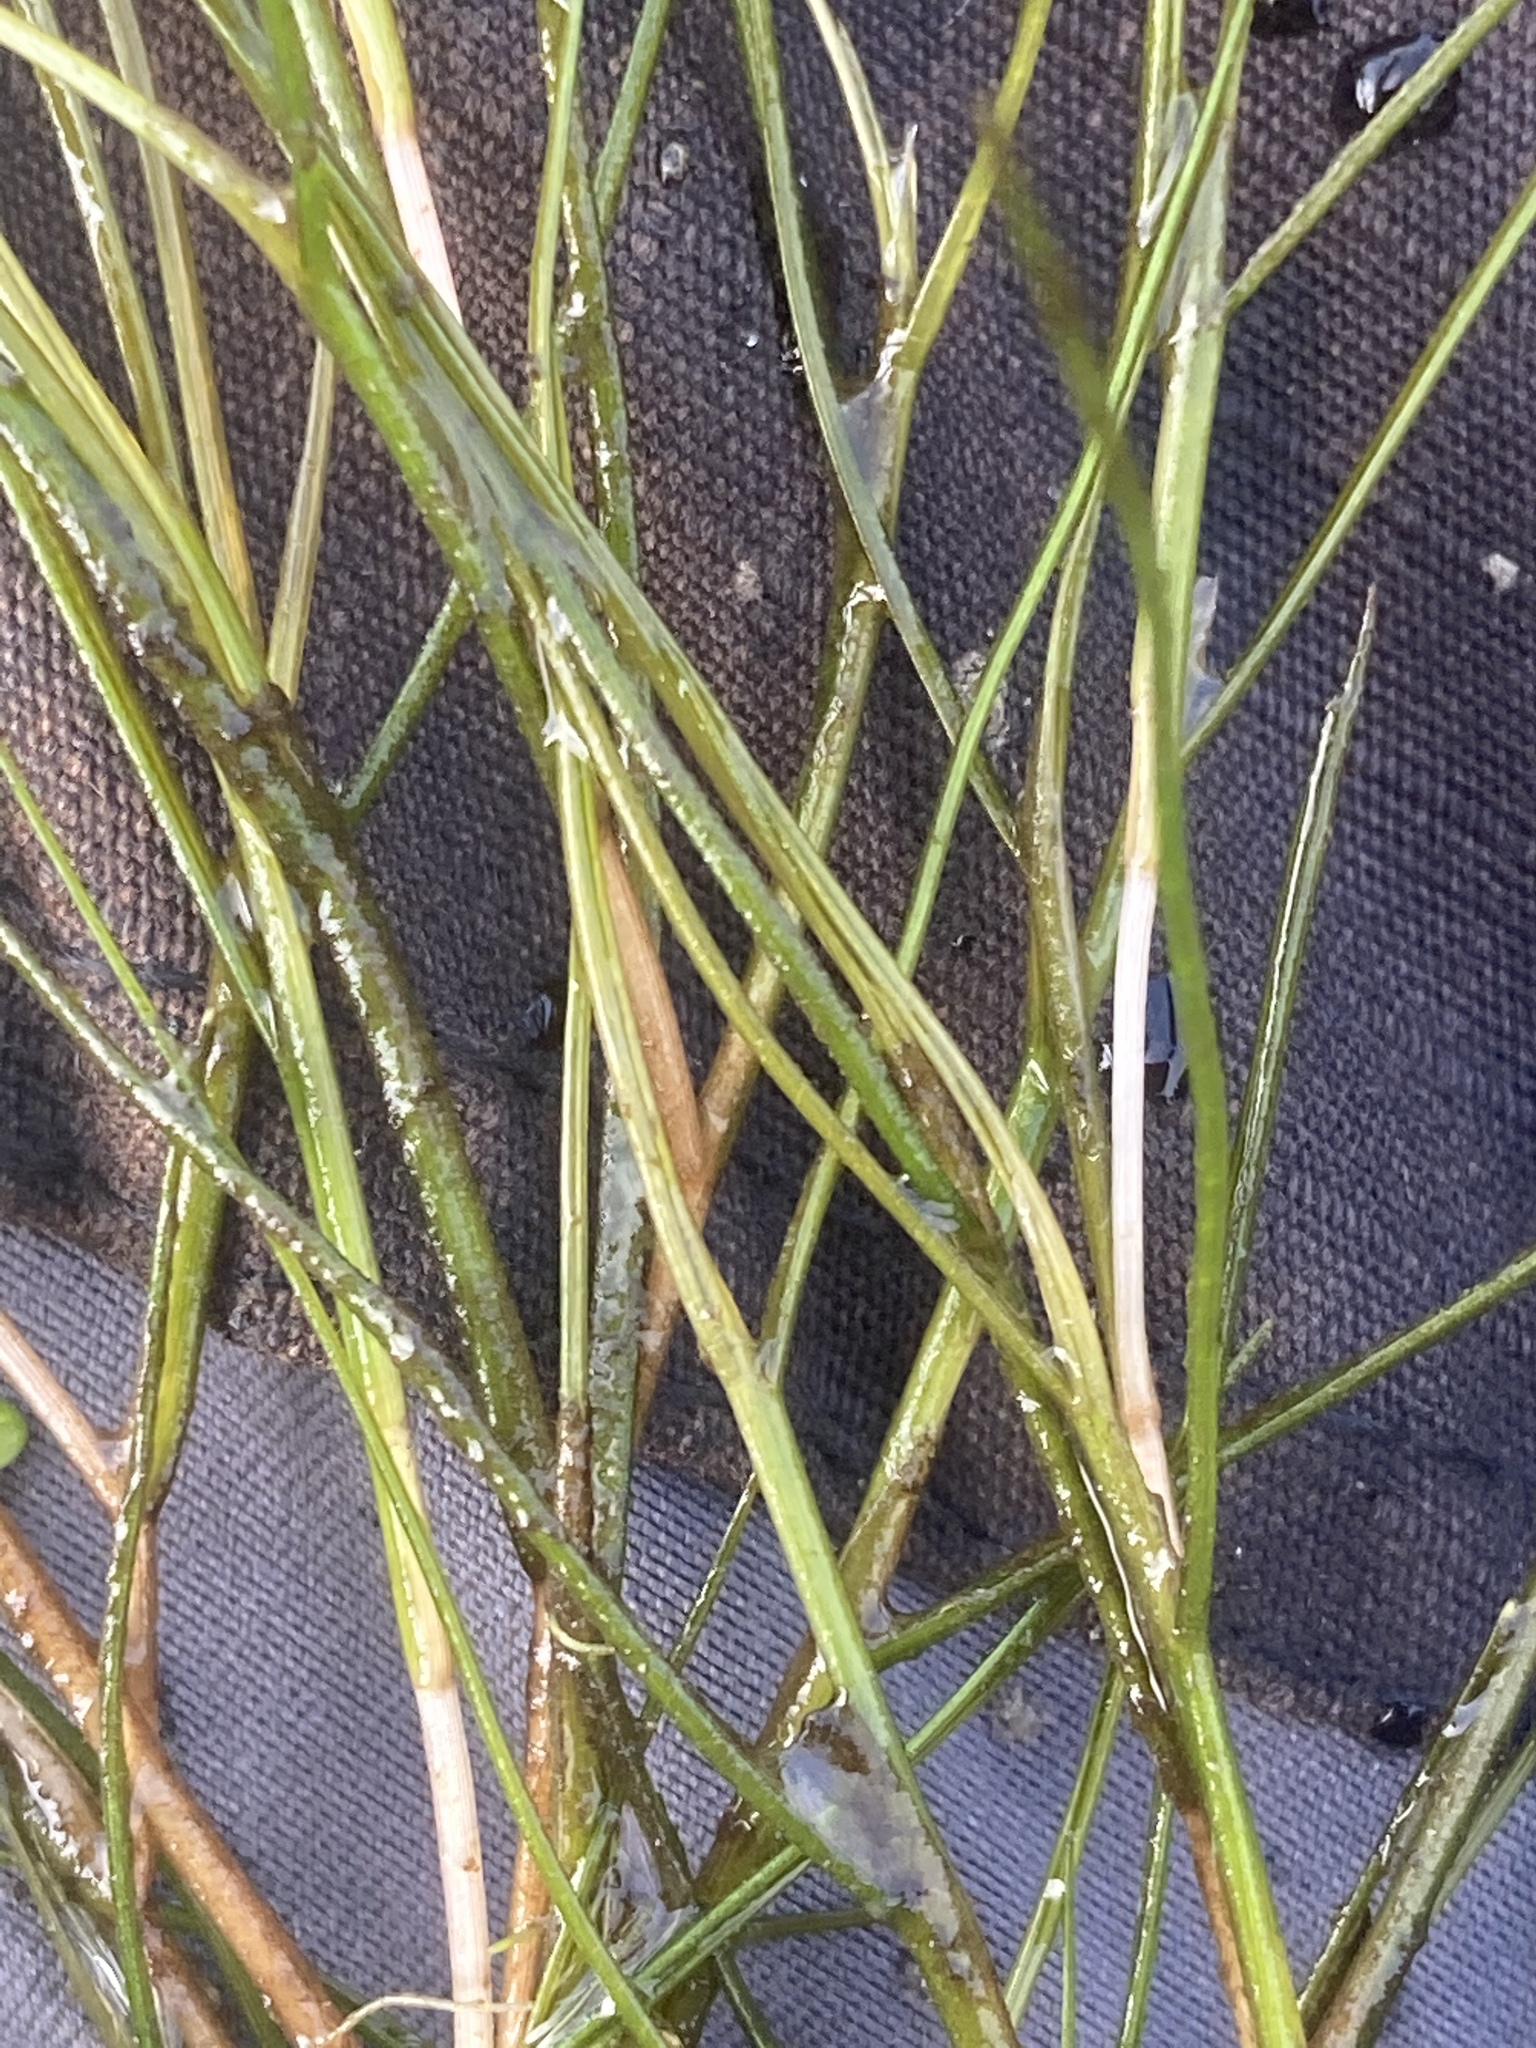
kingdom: Plantae
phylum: Tracheophyta
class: Liliopsida
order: Alismatales
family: Potamogetonaceae
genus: Stuckenia
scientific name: Stuckenia pectinata
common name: Sago pondweed
